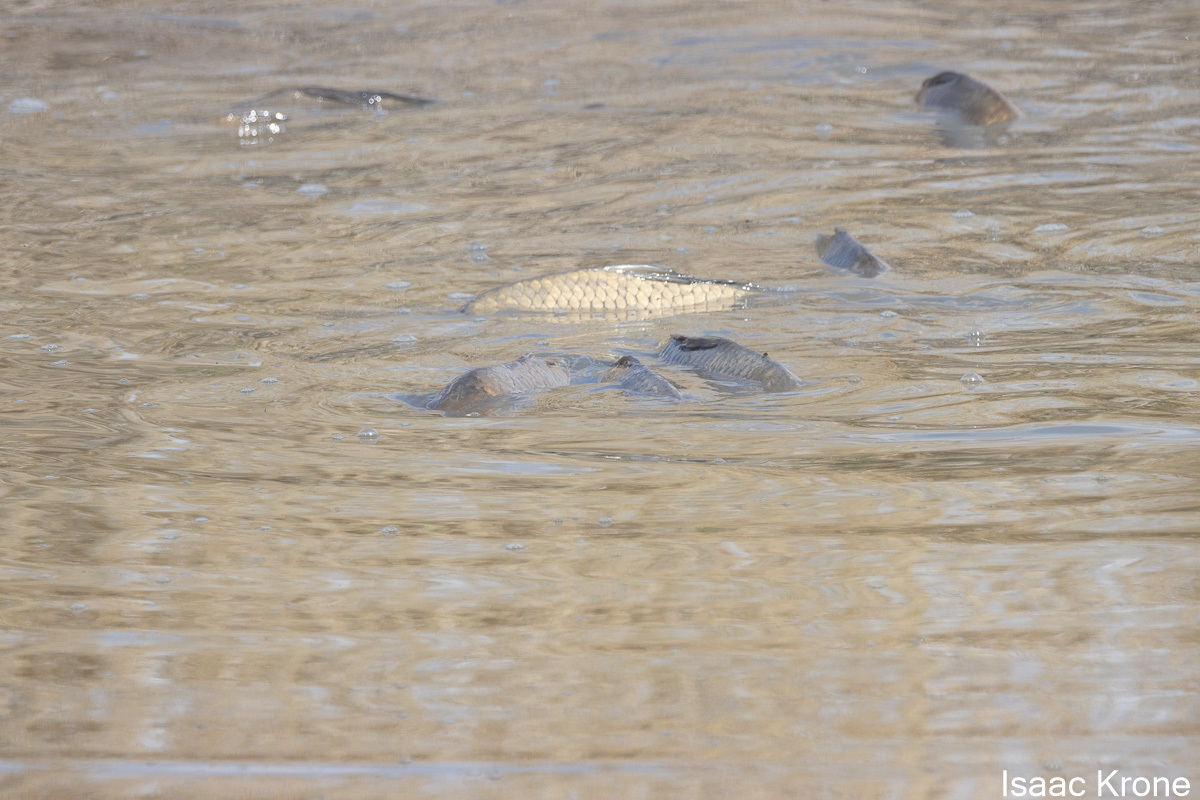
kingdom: Animalia
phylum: Chordata
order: Cypriniformes
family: Cyprinidae
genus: Cyprinus
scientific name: Cyprinus carpio
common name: Common carp
